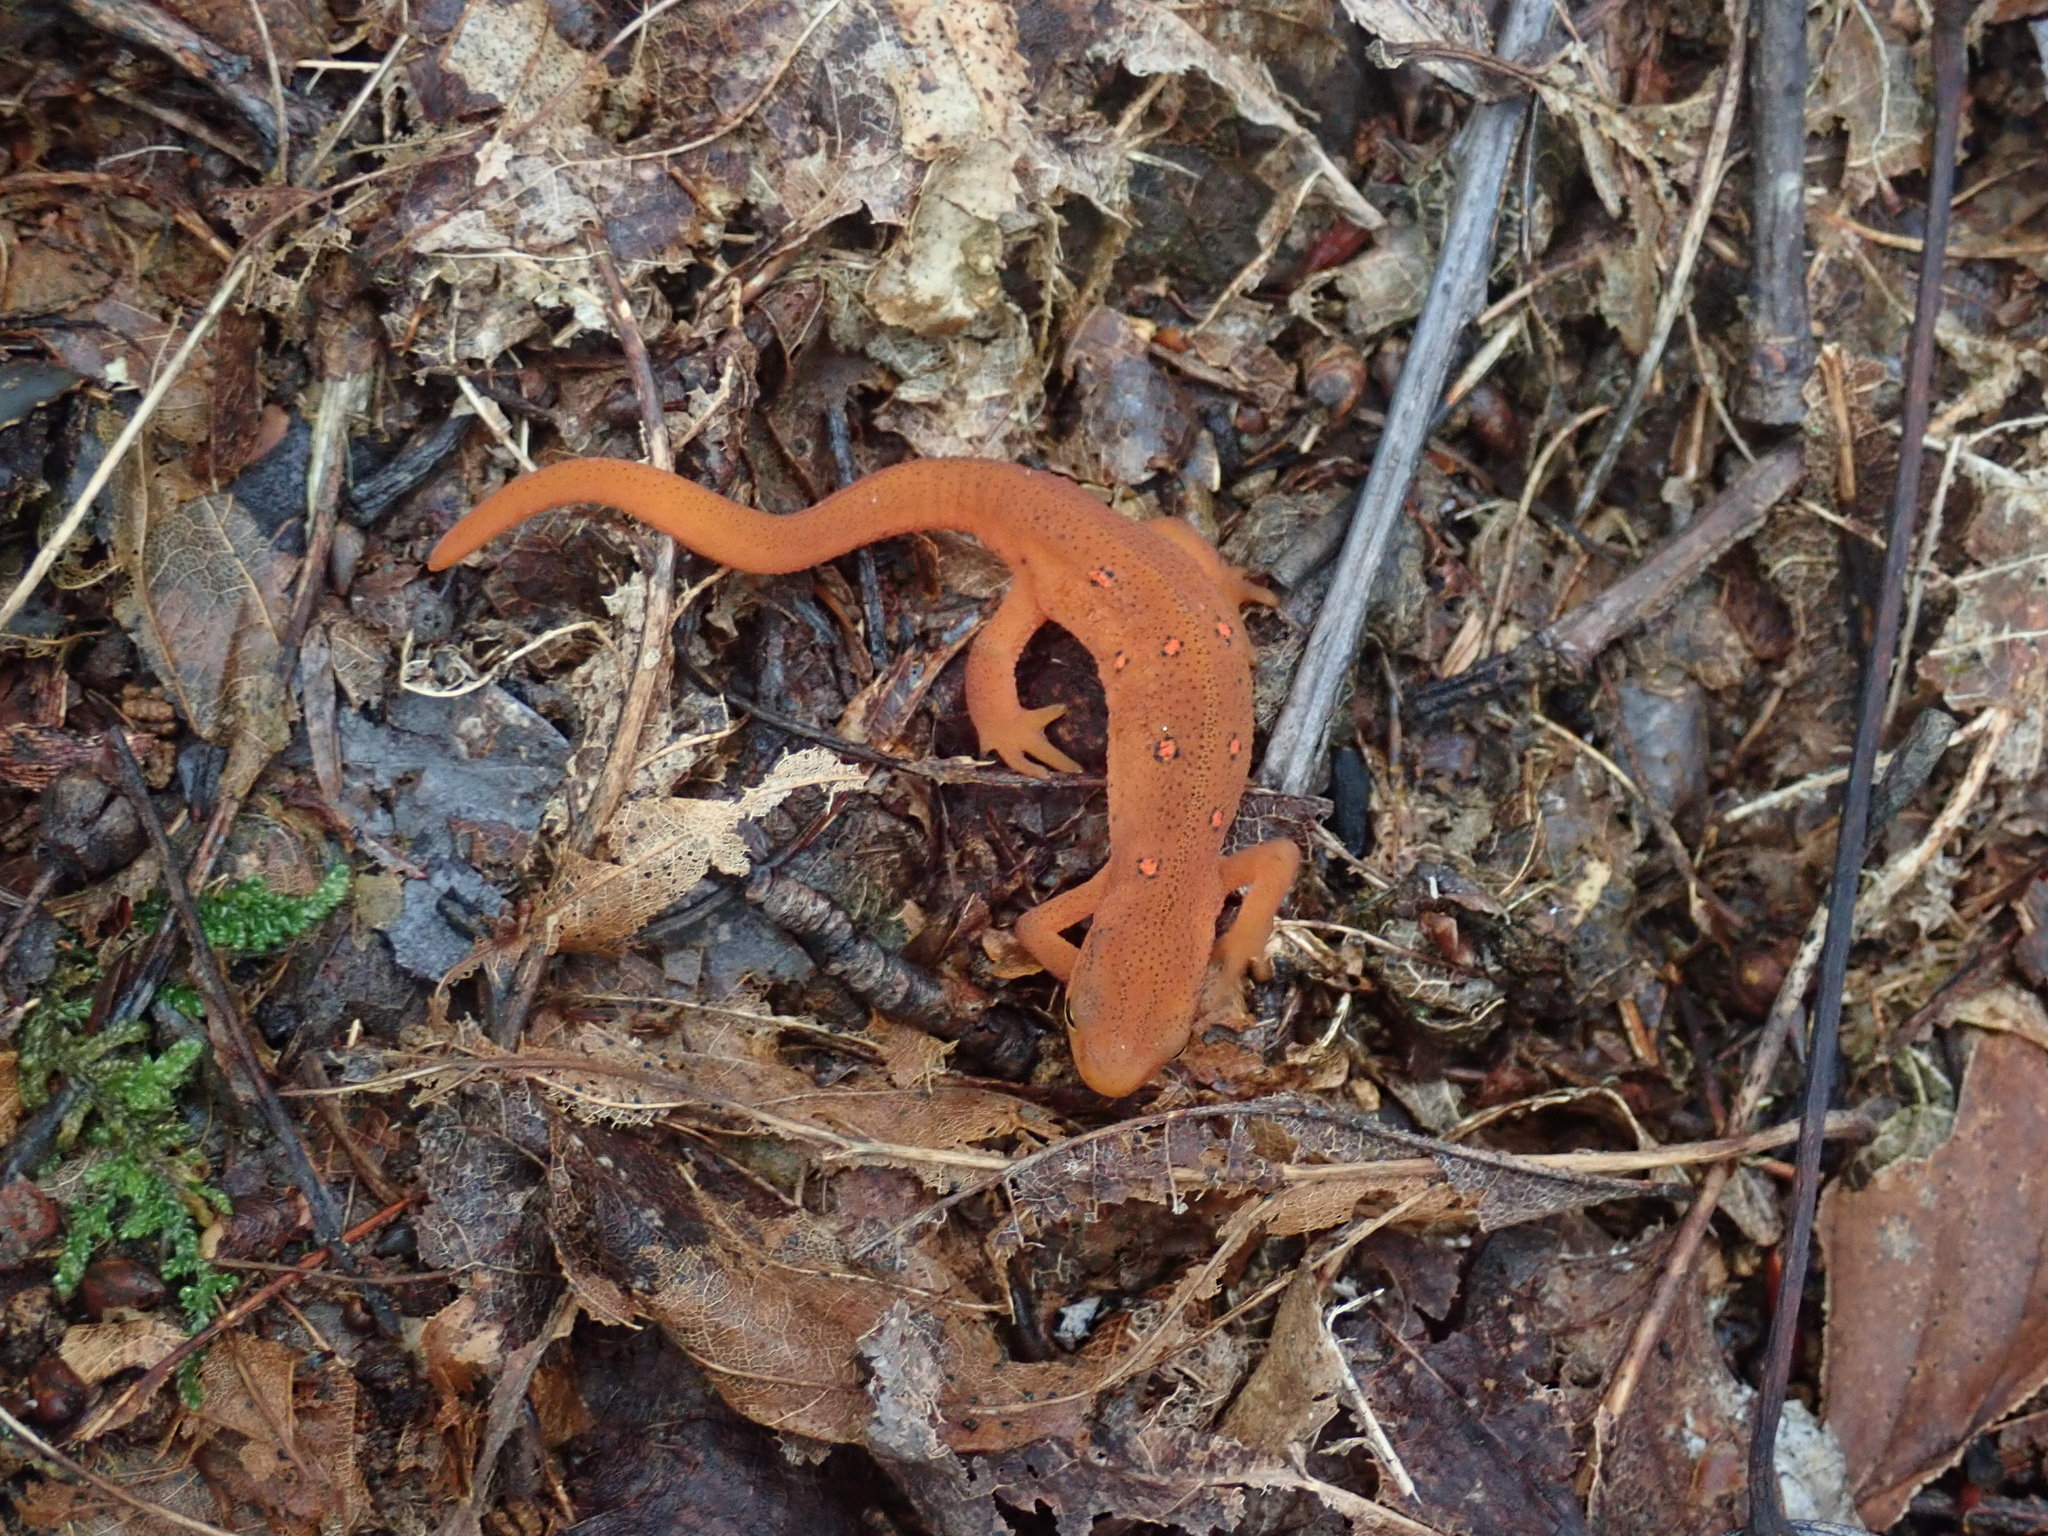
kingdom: Animalia
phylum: Chordata
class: Amphibia
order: Caudata
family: Salamandridae
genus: Notophthalmus
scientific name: Notophthalmus viridescens
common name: Eastern newt
